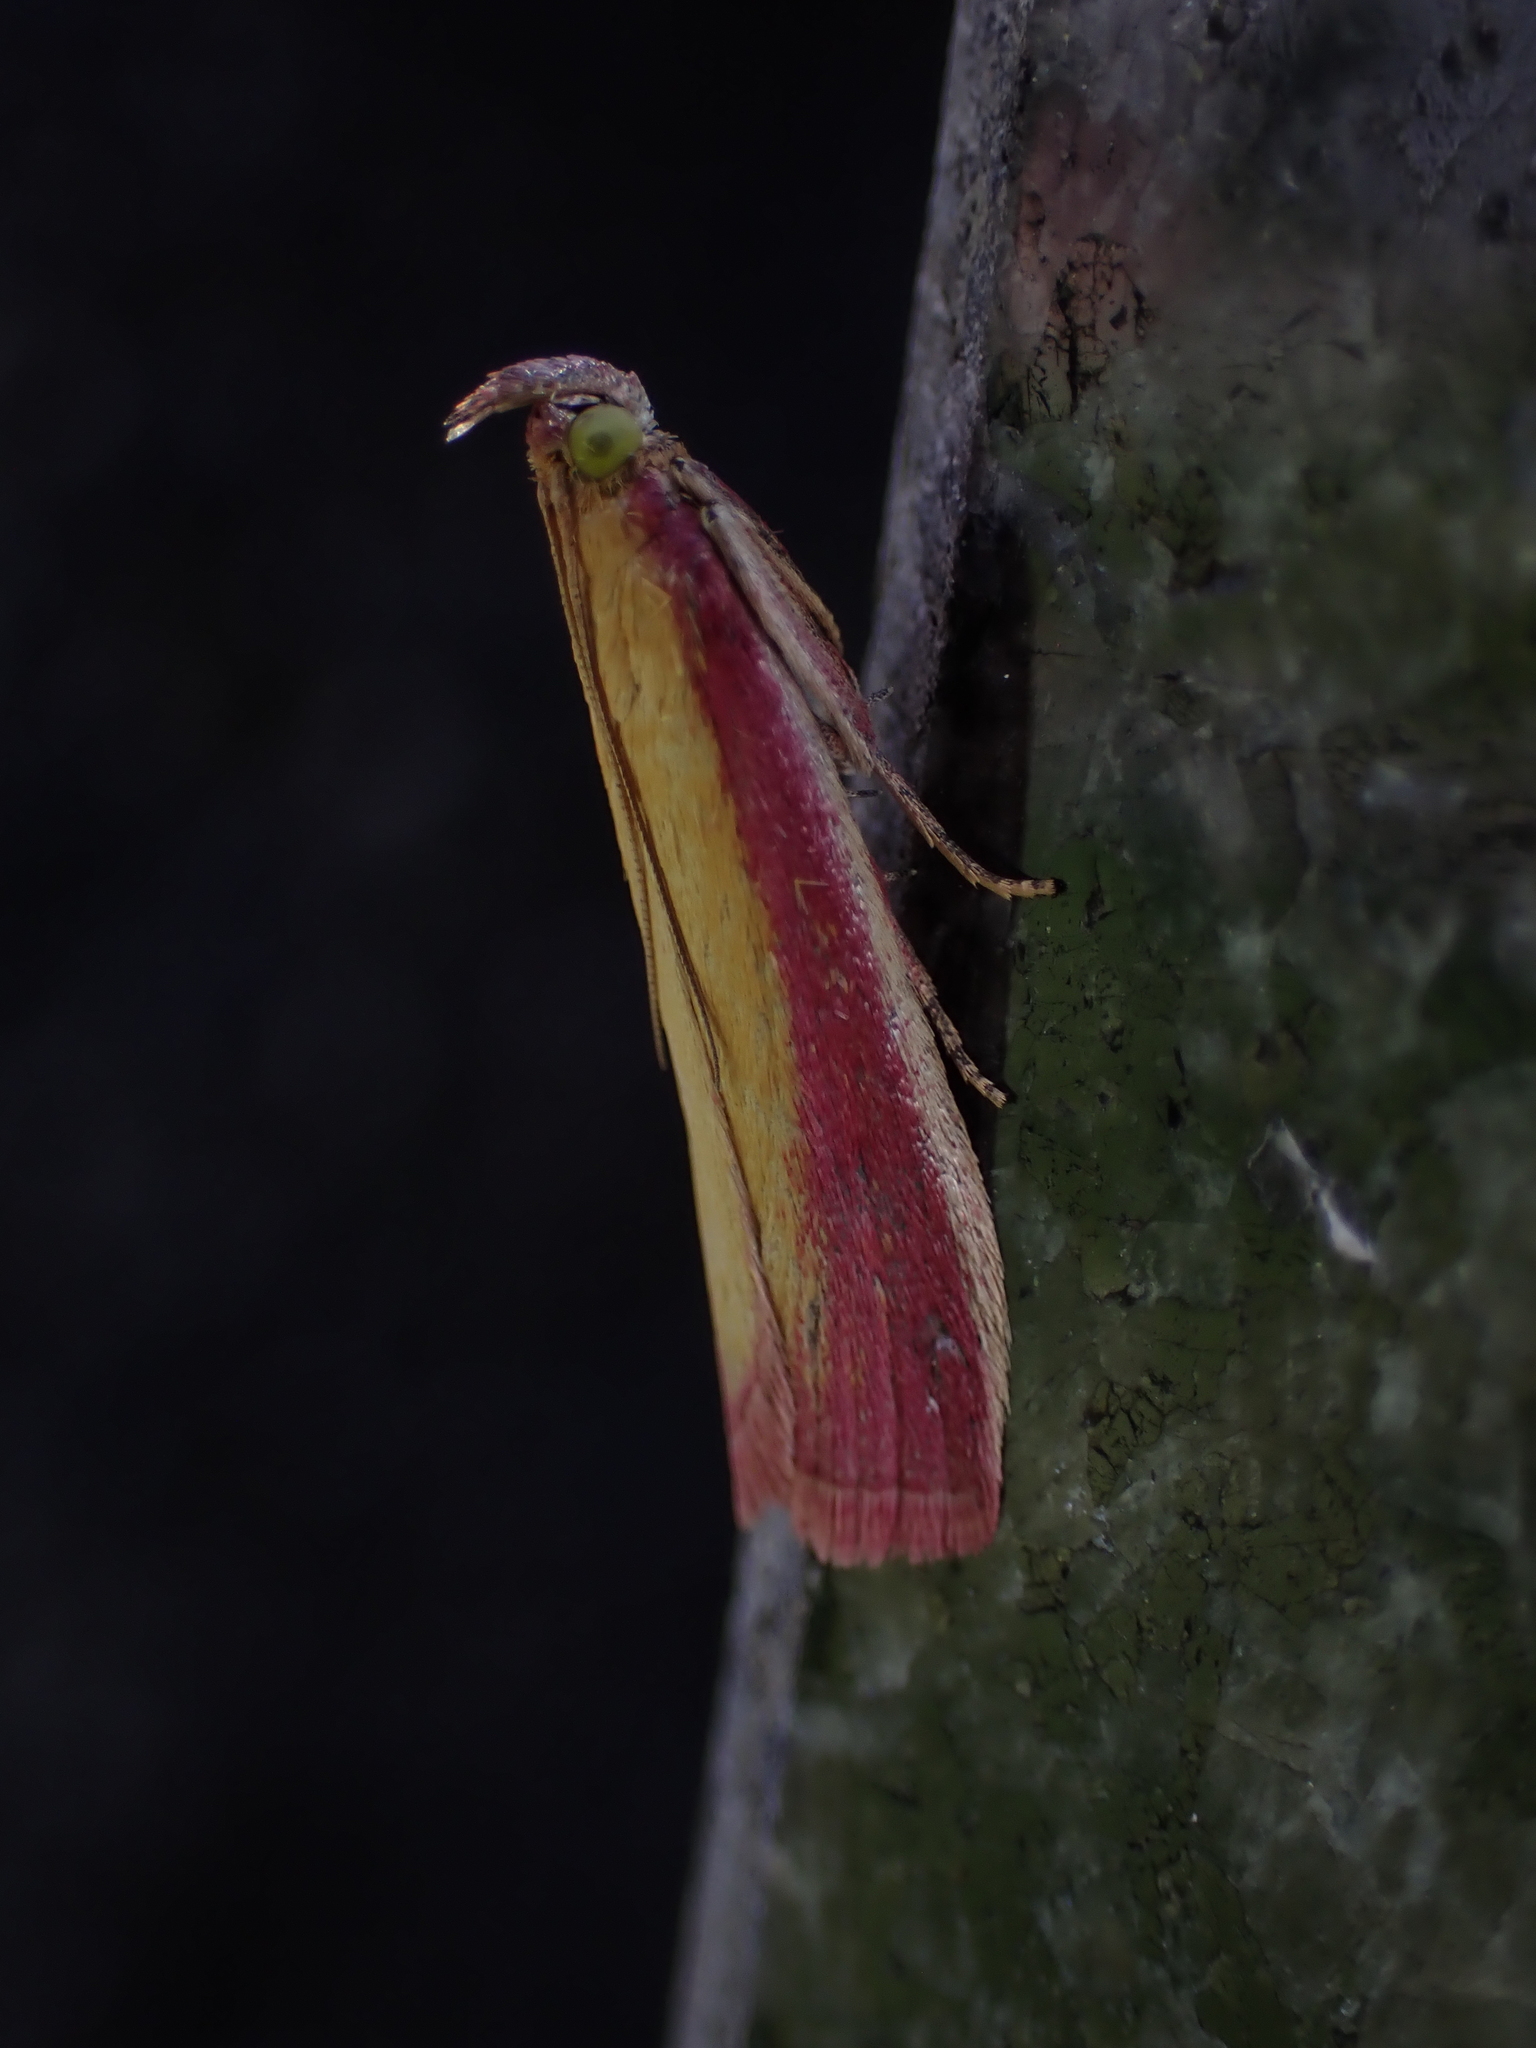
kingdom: Animalia
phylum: Arthropoda
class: Insecta
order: Lepidoptera
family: Pyralidae
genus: Oncocera
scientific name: Oncocera semirubella
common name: Rosy-striped knot-horn
